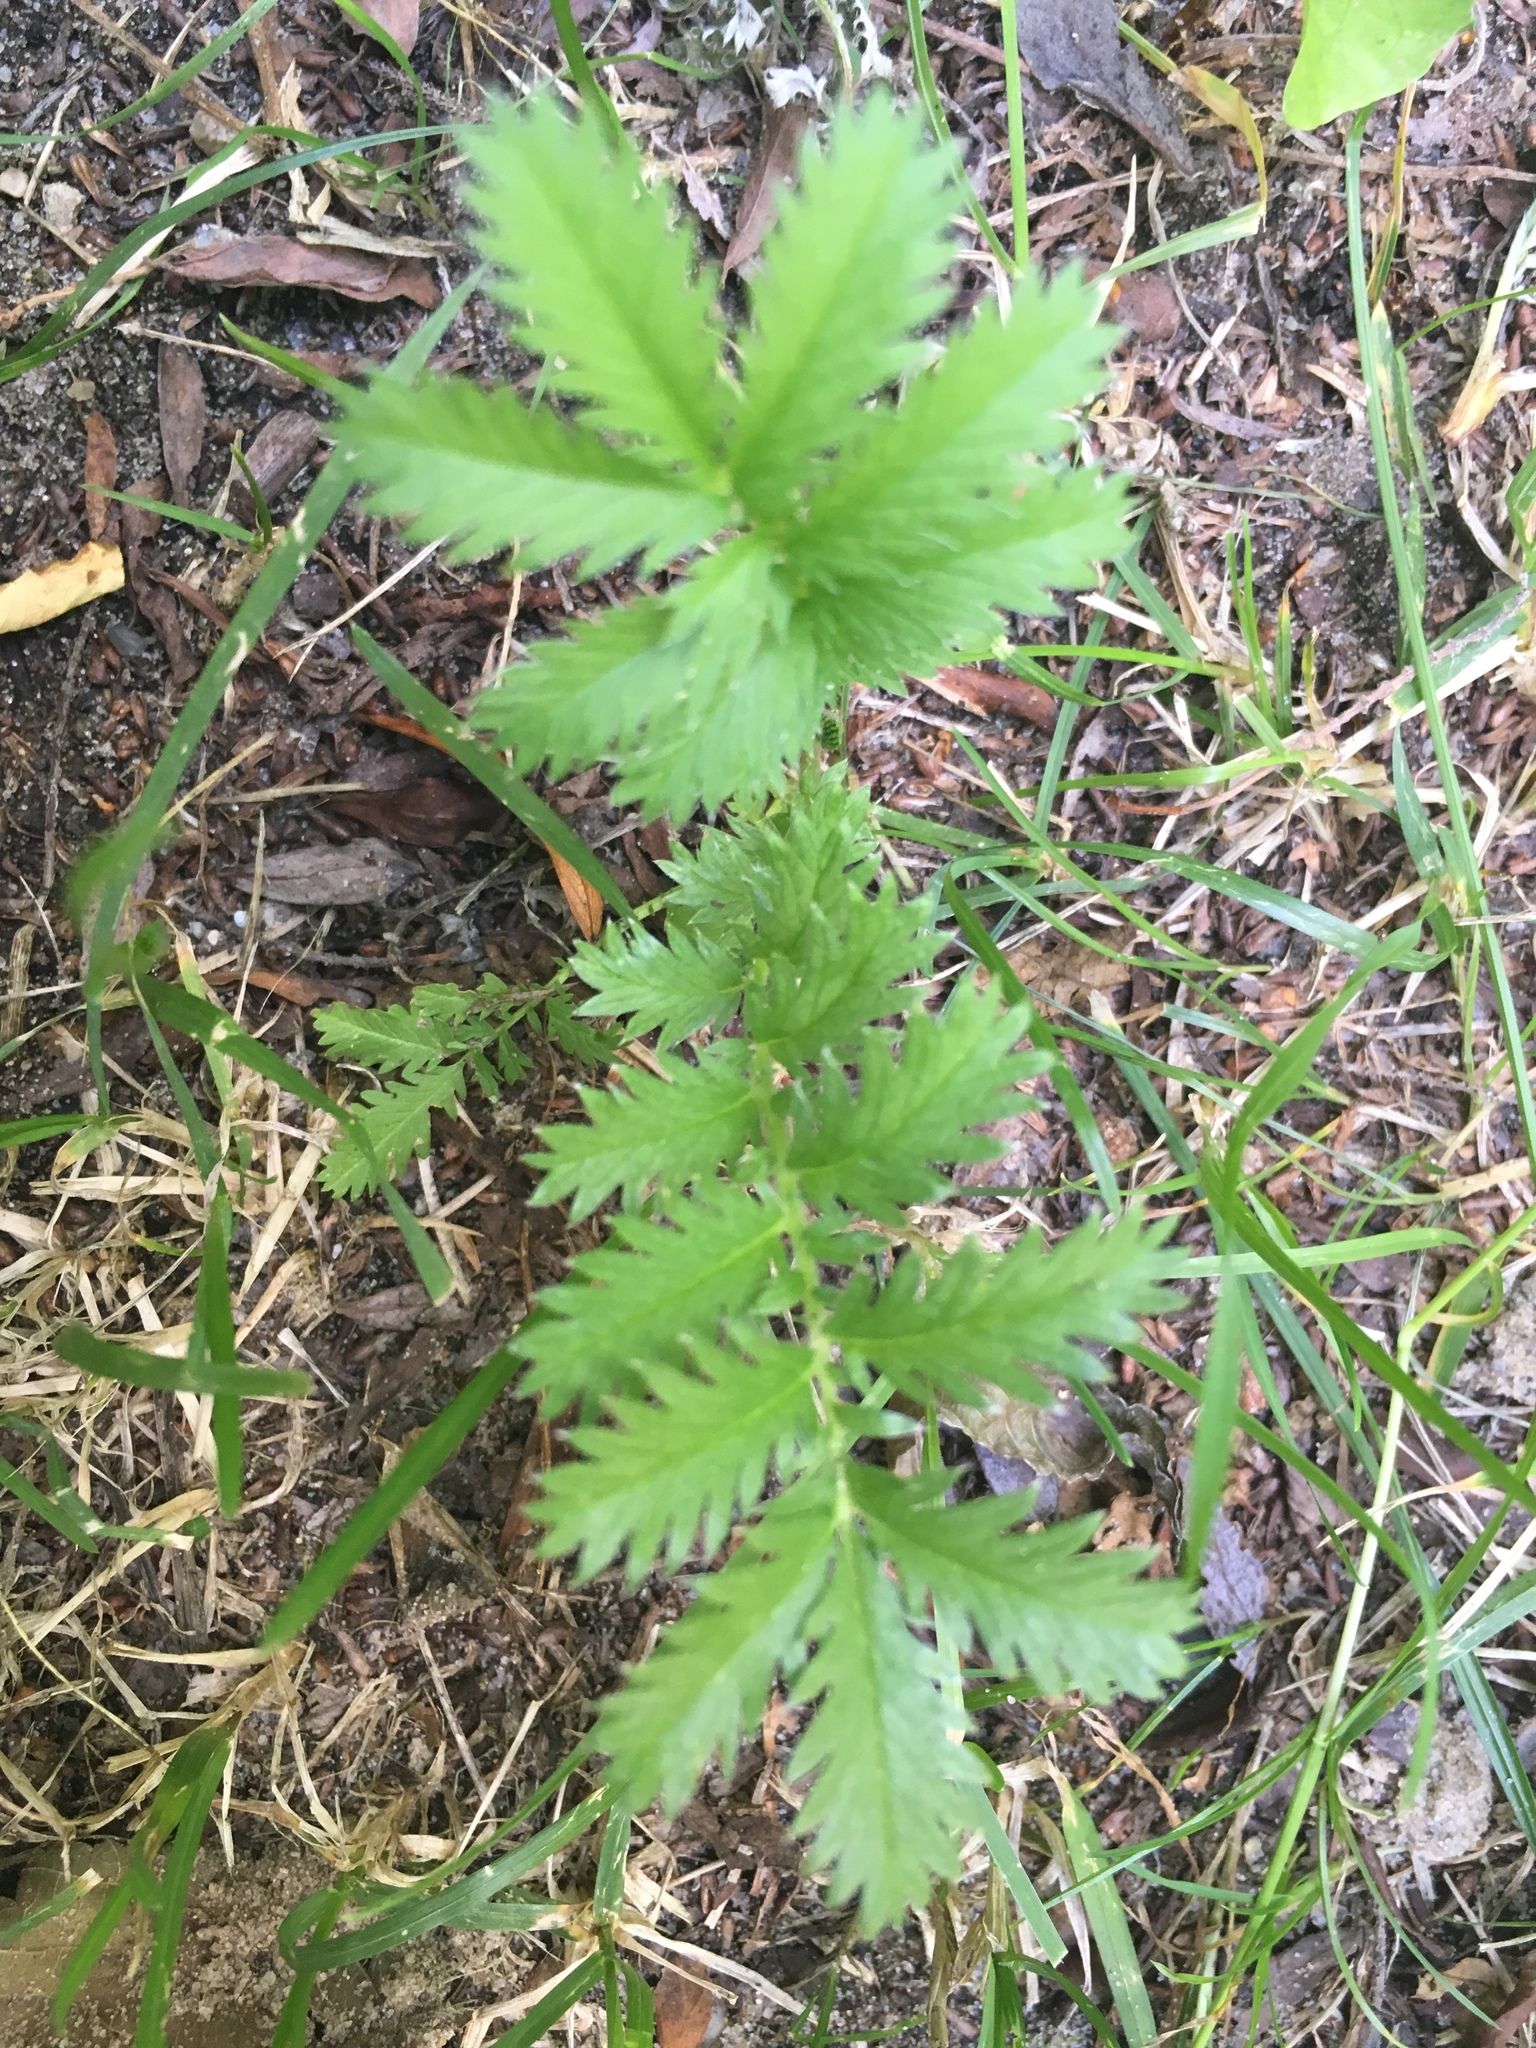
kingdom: Plantae
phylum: Tracheophyta
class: Magnoliopsida
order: Rosales
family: Rosaceae
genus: Argentina
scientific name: Argentina anserina
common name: Common silverweed
